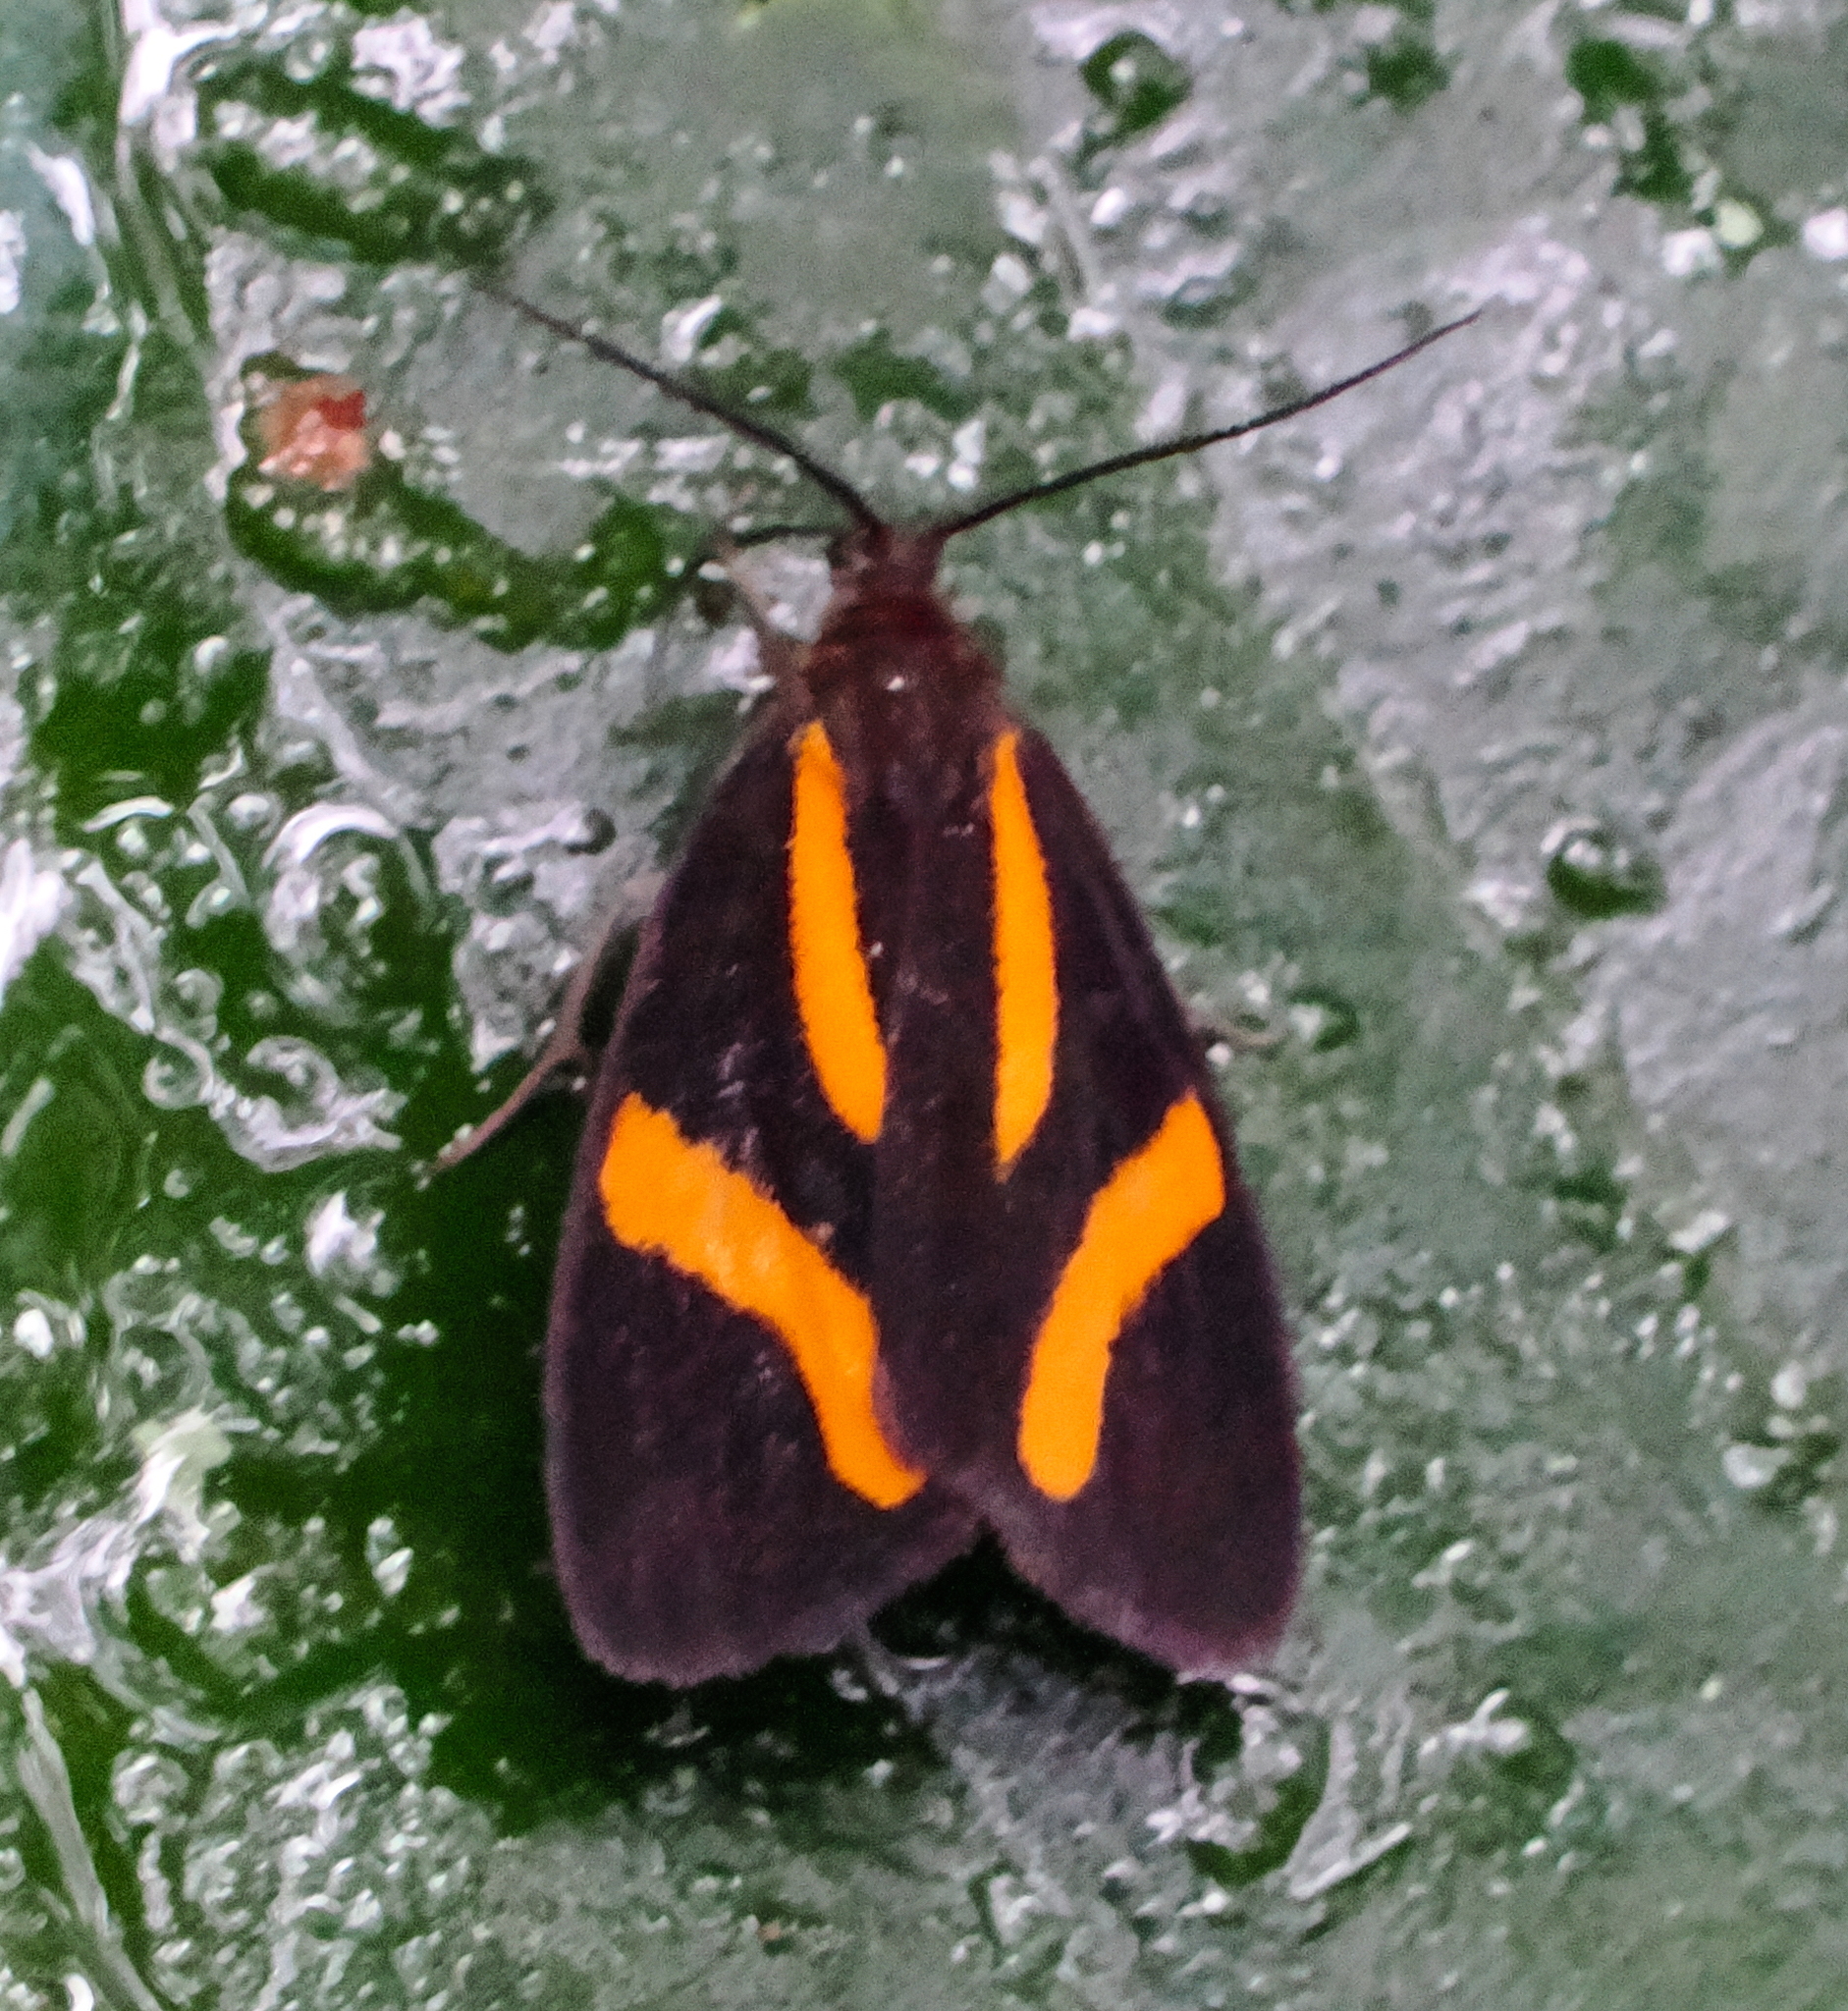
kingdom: Animalia
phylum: Arthropoda
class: Insecta
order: Lepidoptera
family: Notodontidae
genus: Stenoplastis
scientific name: Stenoplastis decorata
